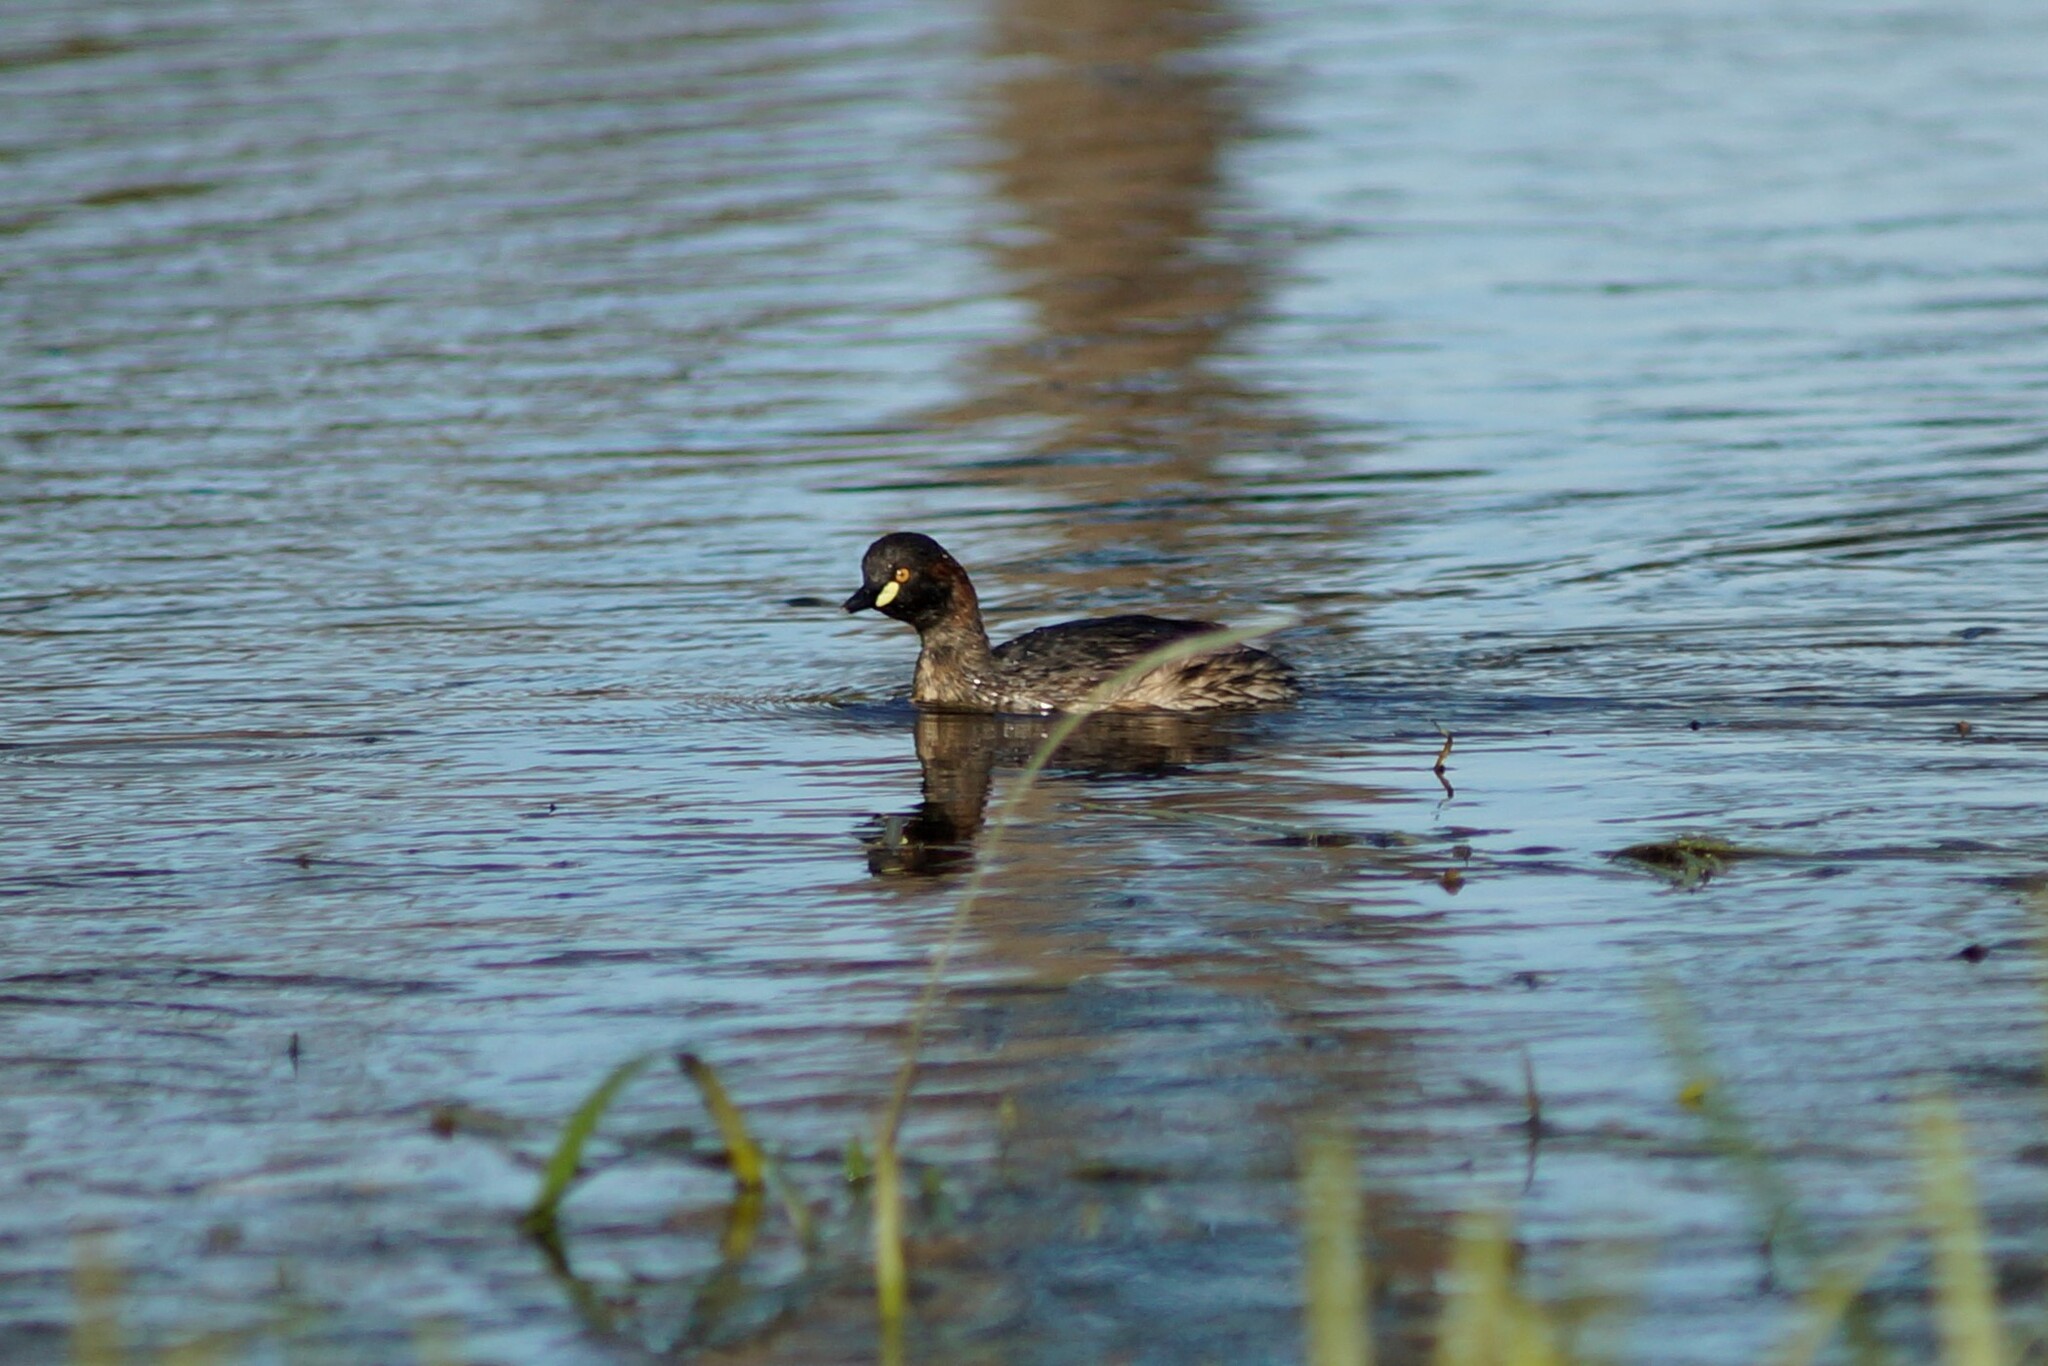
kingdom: Animalia
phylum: Chordata
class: Aves
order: Podicipediformes
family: Podicipedidae
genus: Tachybaptus
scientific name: Tachybaptus novaehollandiae
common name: Australasian grebe
